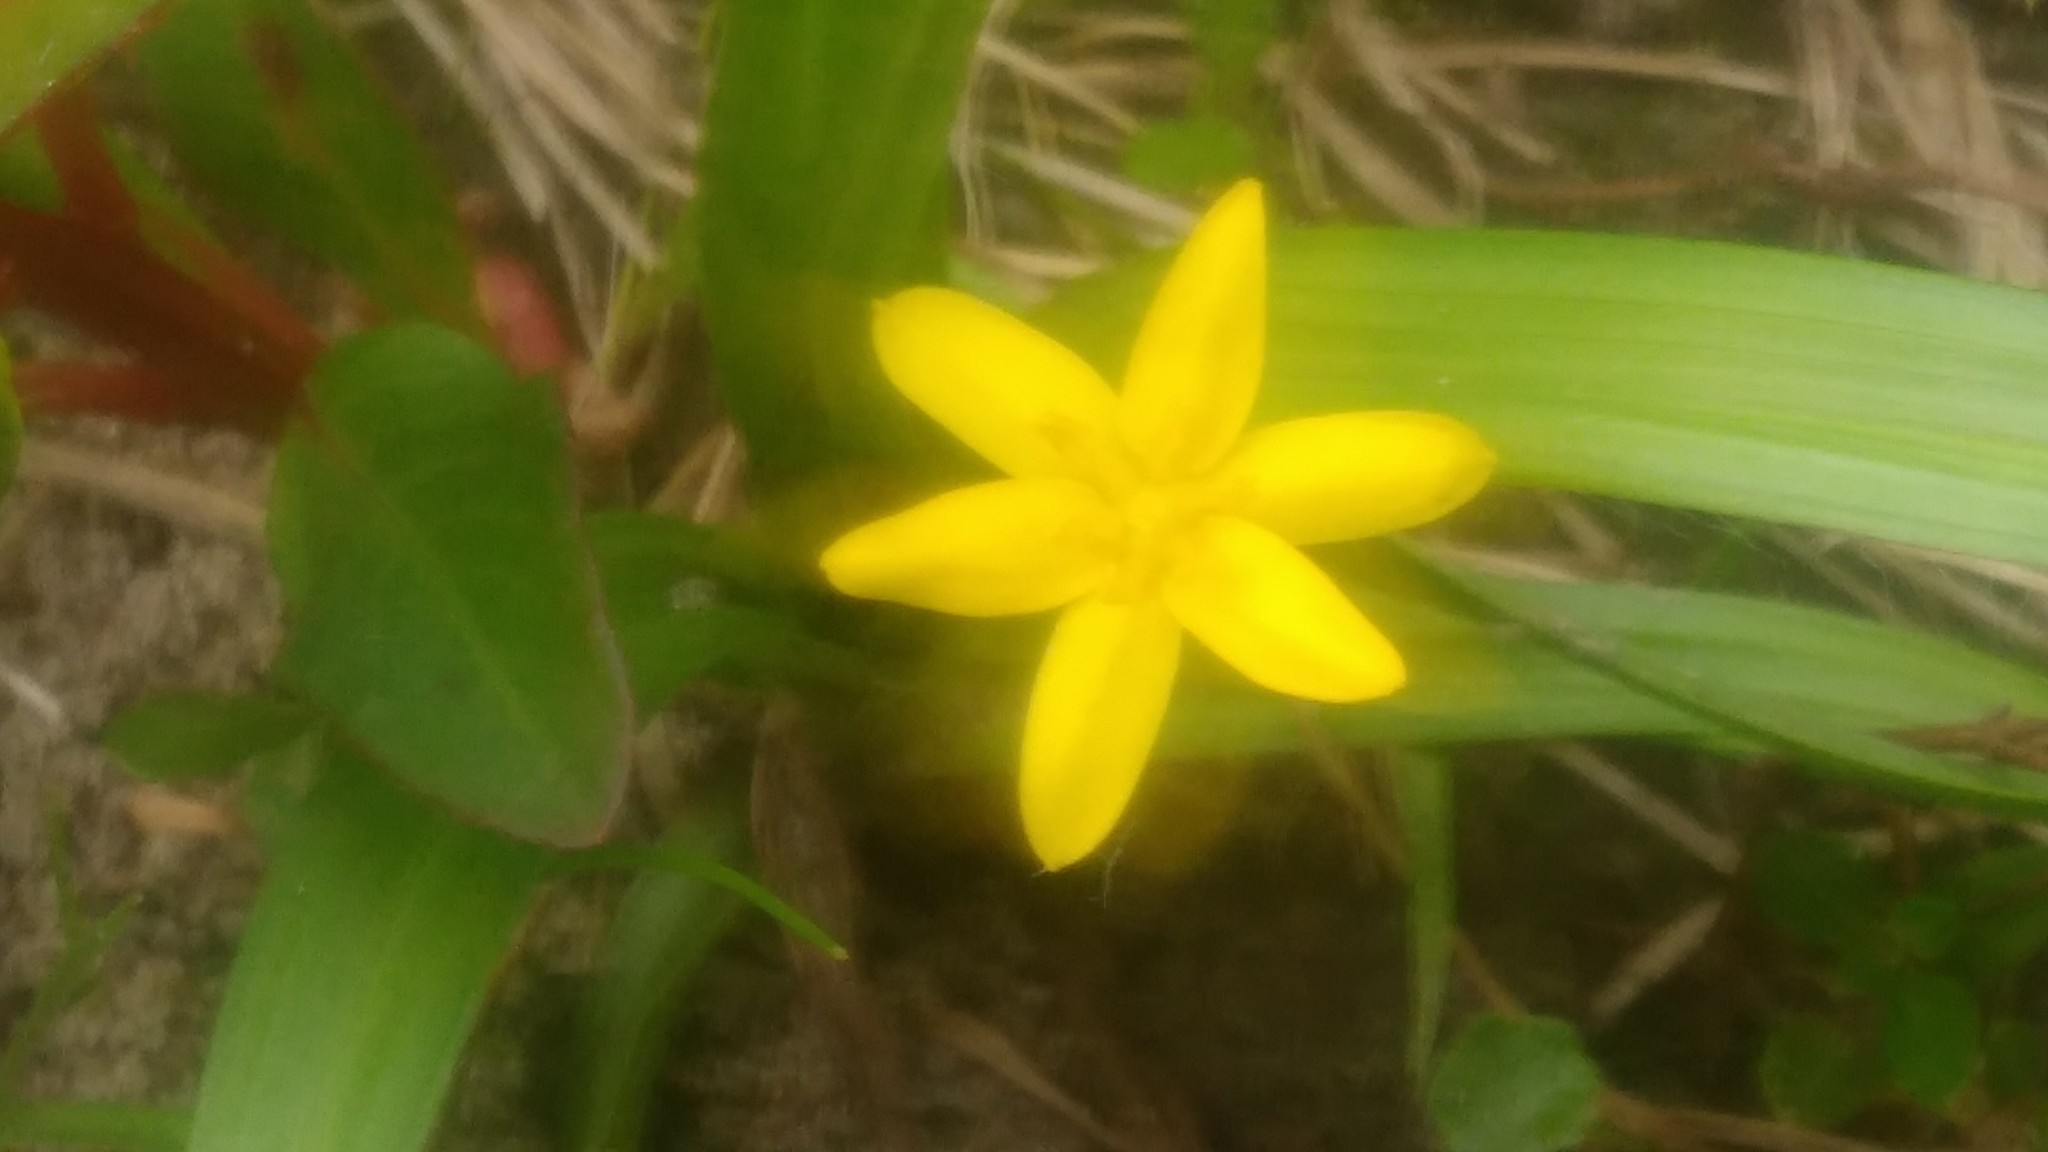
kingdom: Plantae
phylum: Tracheophyta
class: Liliopsida
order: Asparagales
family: Hypoxidaceae
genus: Hypoxis
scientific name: Hypoxis decumbens
